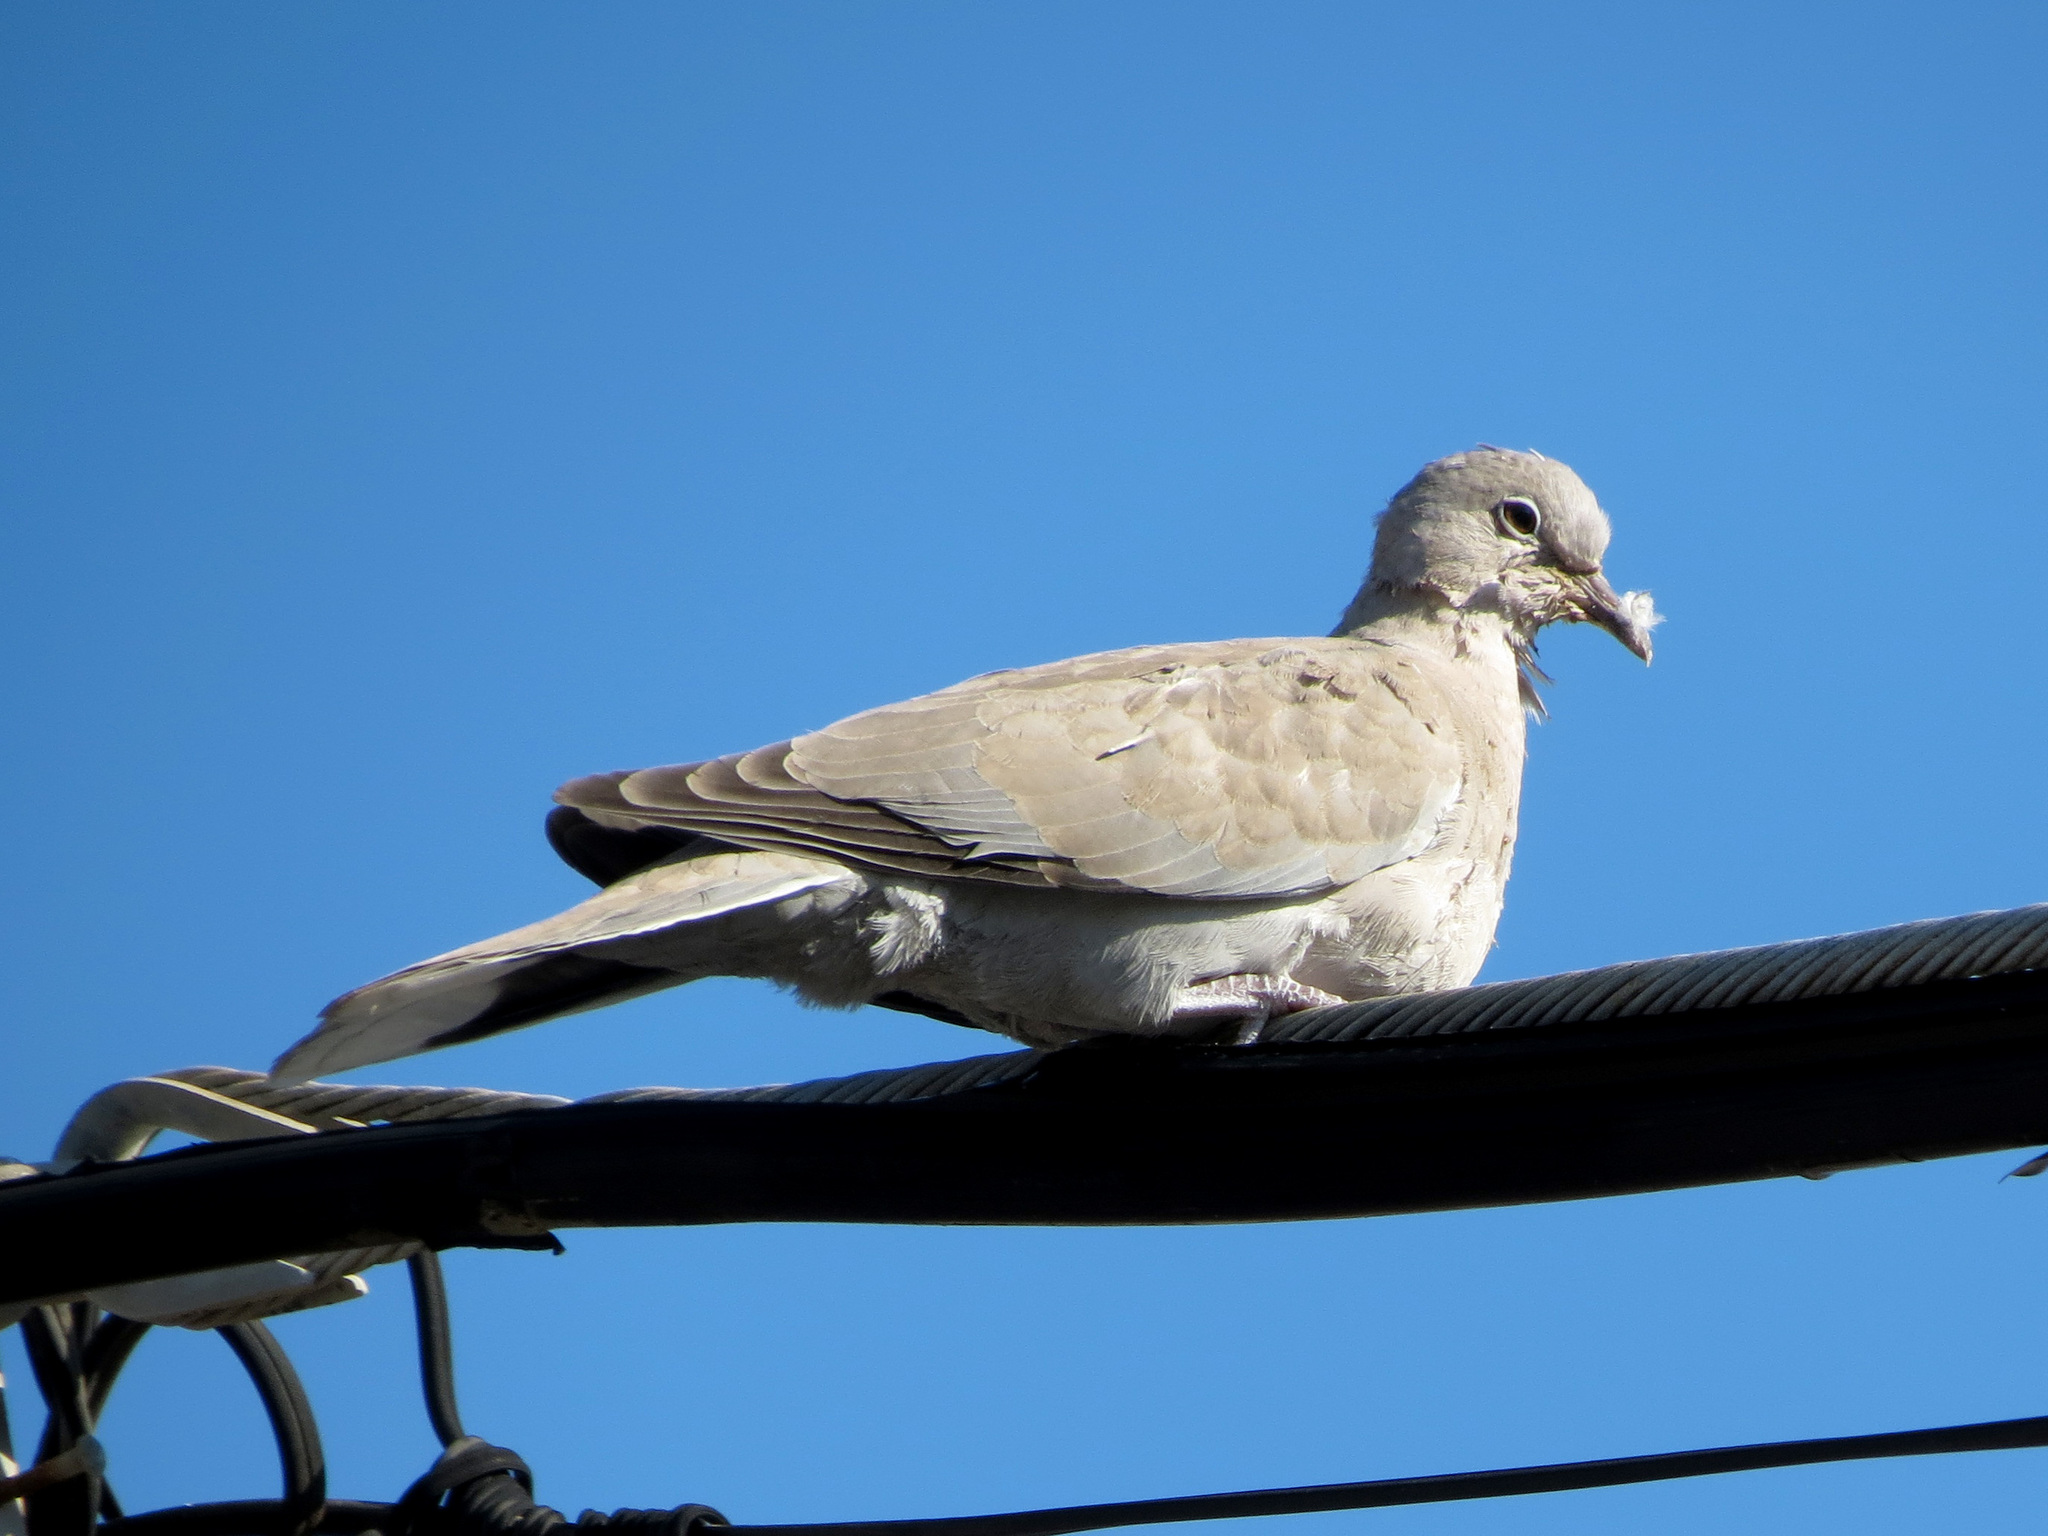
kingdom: Animalia
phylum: Chordata
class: Aves
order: Columbiformes
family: Columbidae
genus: Streptopelia
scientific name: Streptopelia decaocto
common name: Eurasian collared dove
